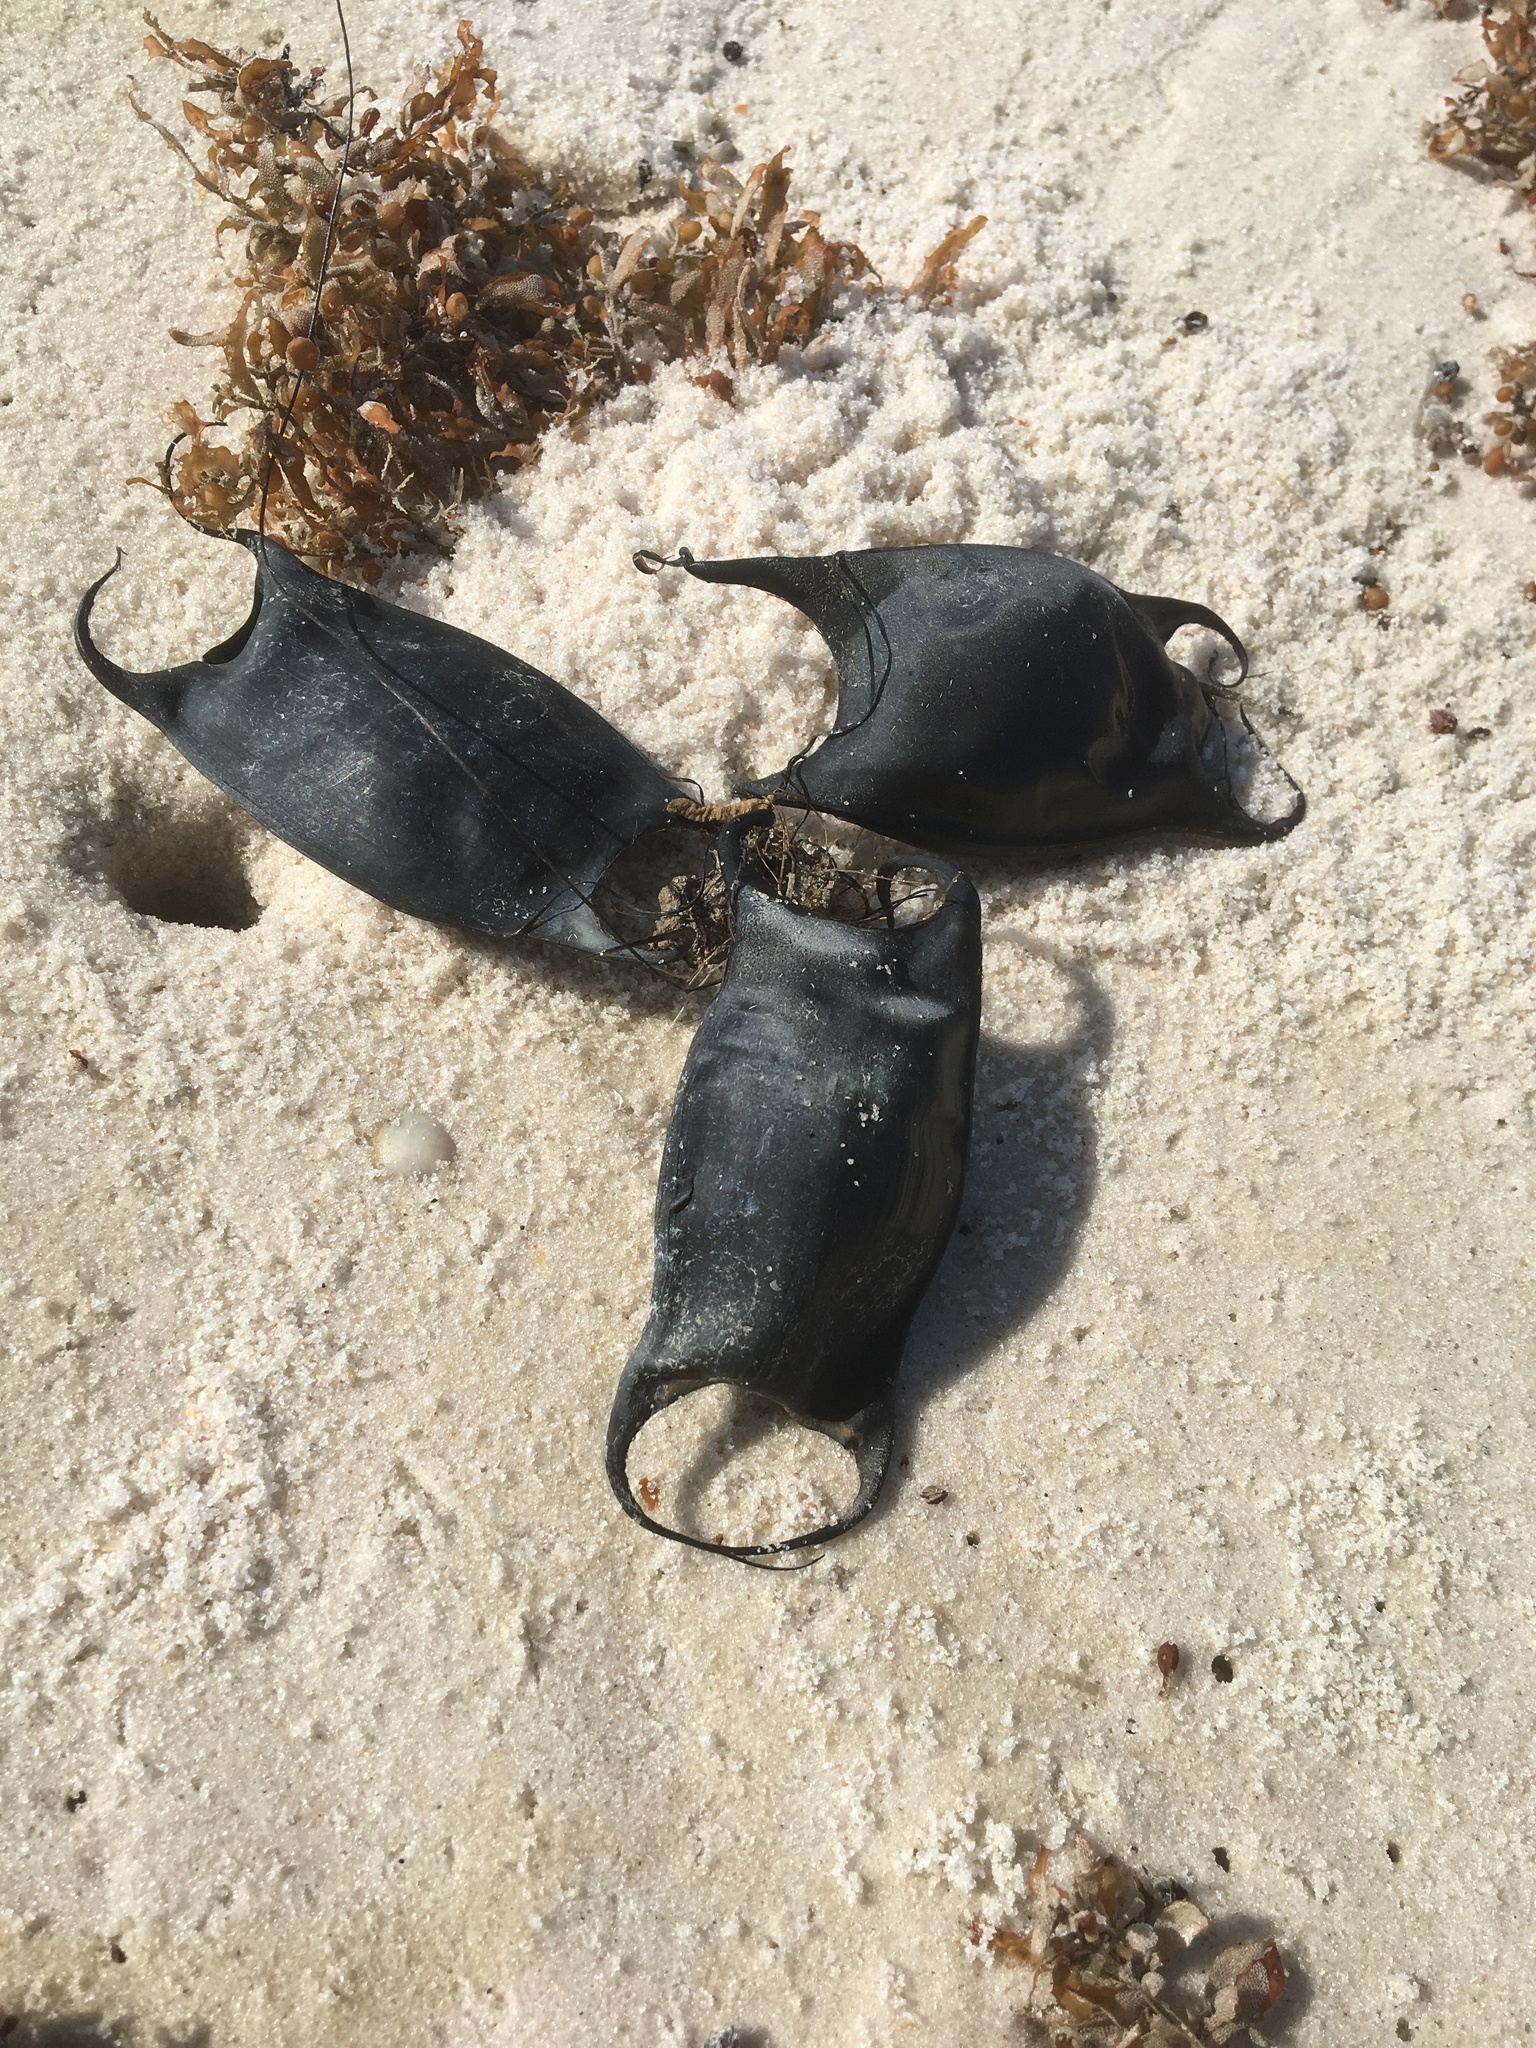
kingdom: Animalia
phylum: Chordata
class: Elasmobranchii
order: Rajiformes
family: Rajidae
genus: Raja
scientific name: Raja eglanteria
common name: Clearnose skate
